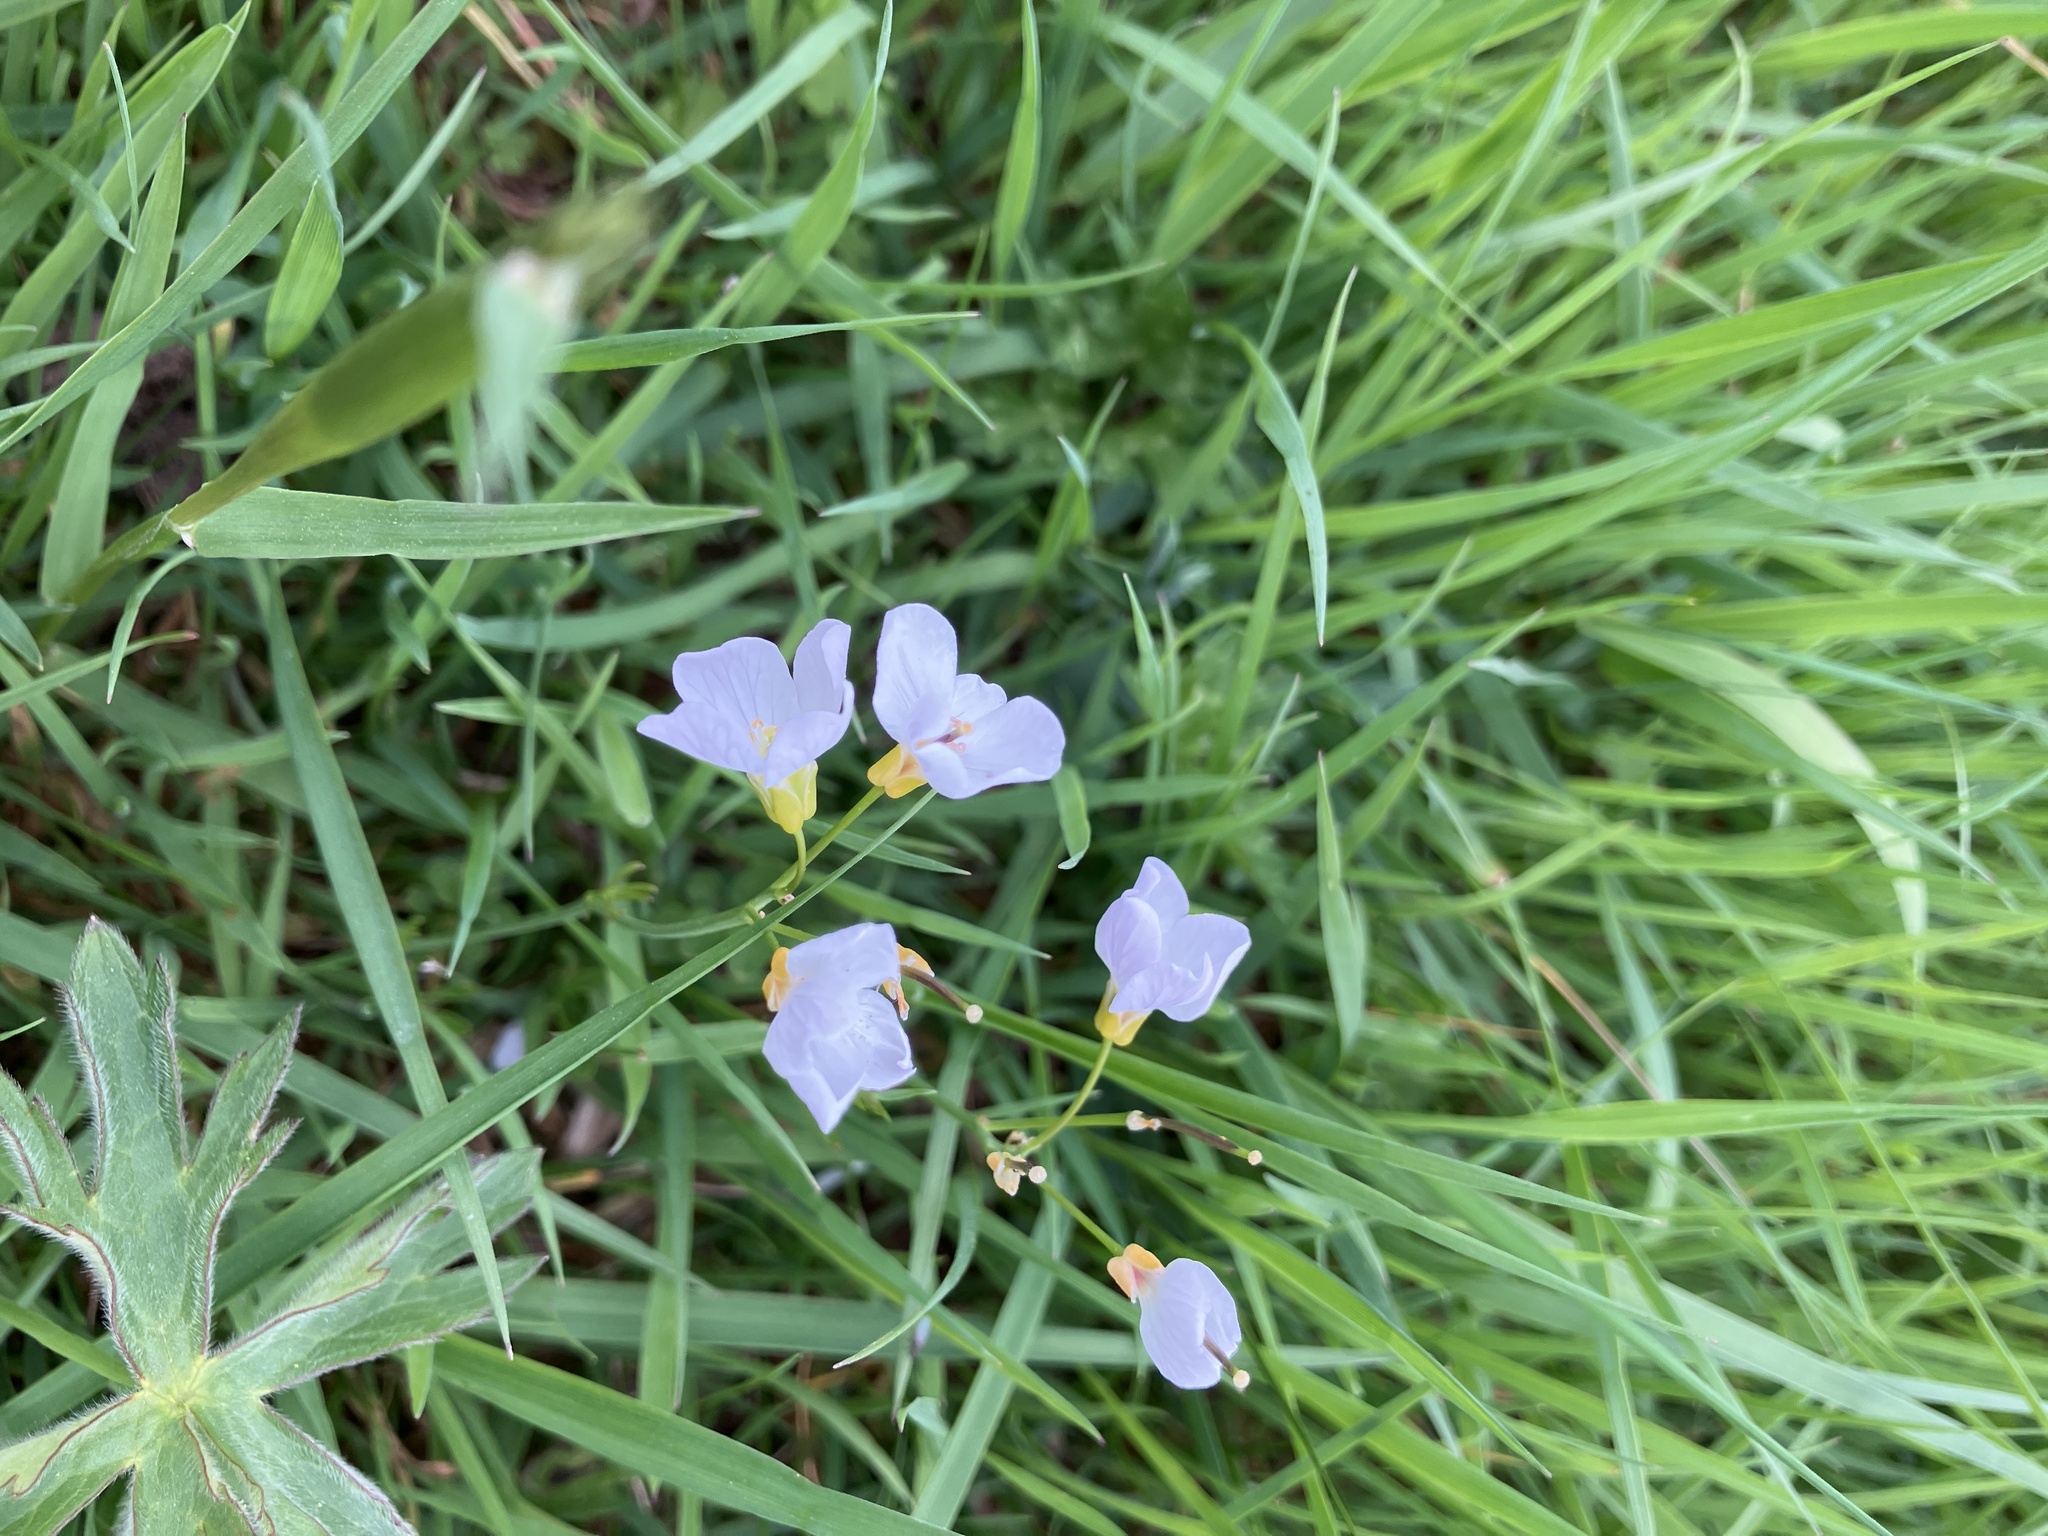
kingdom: Plantae
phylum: Tracheophyta
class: Magnoliopsida
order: Brassicales
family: Brassicaceae
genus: Cardamine
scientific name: Cardamine pratensis
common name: Cuckoo flower
